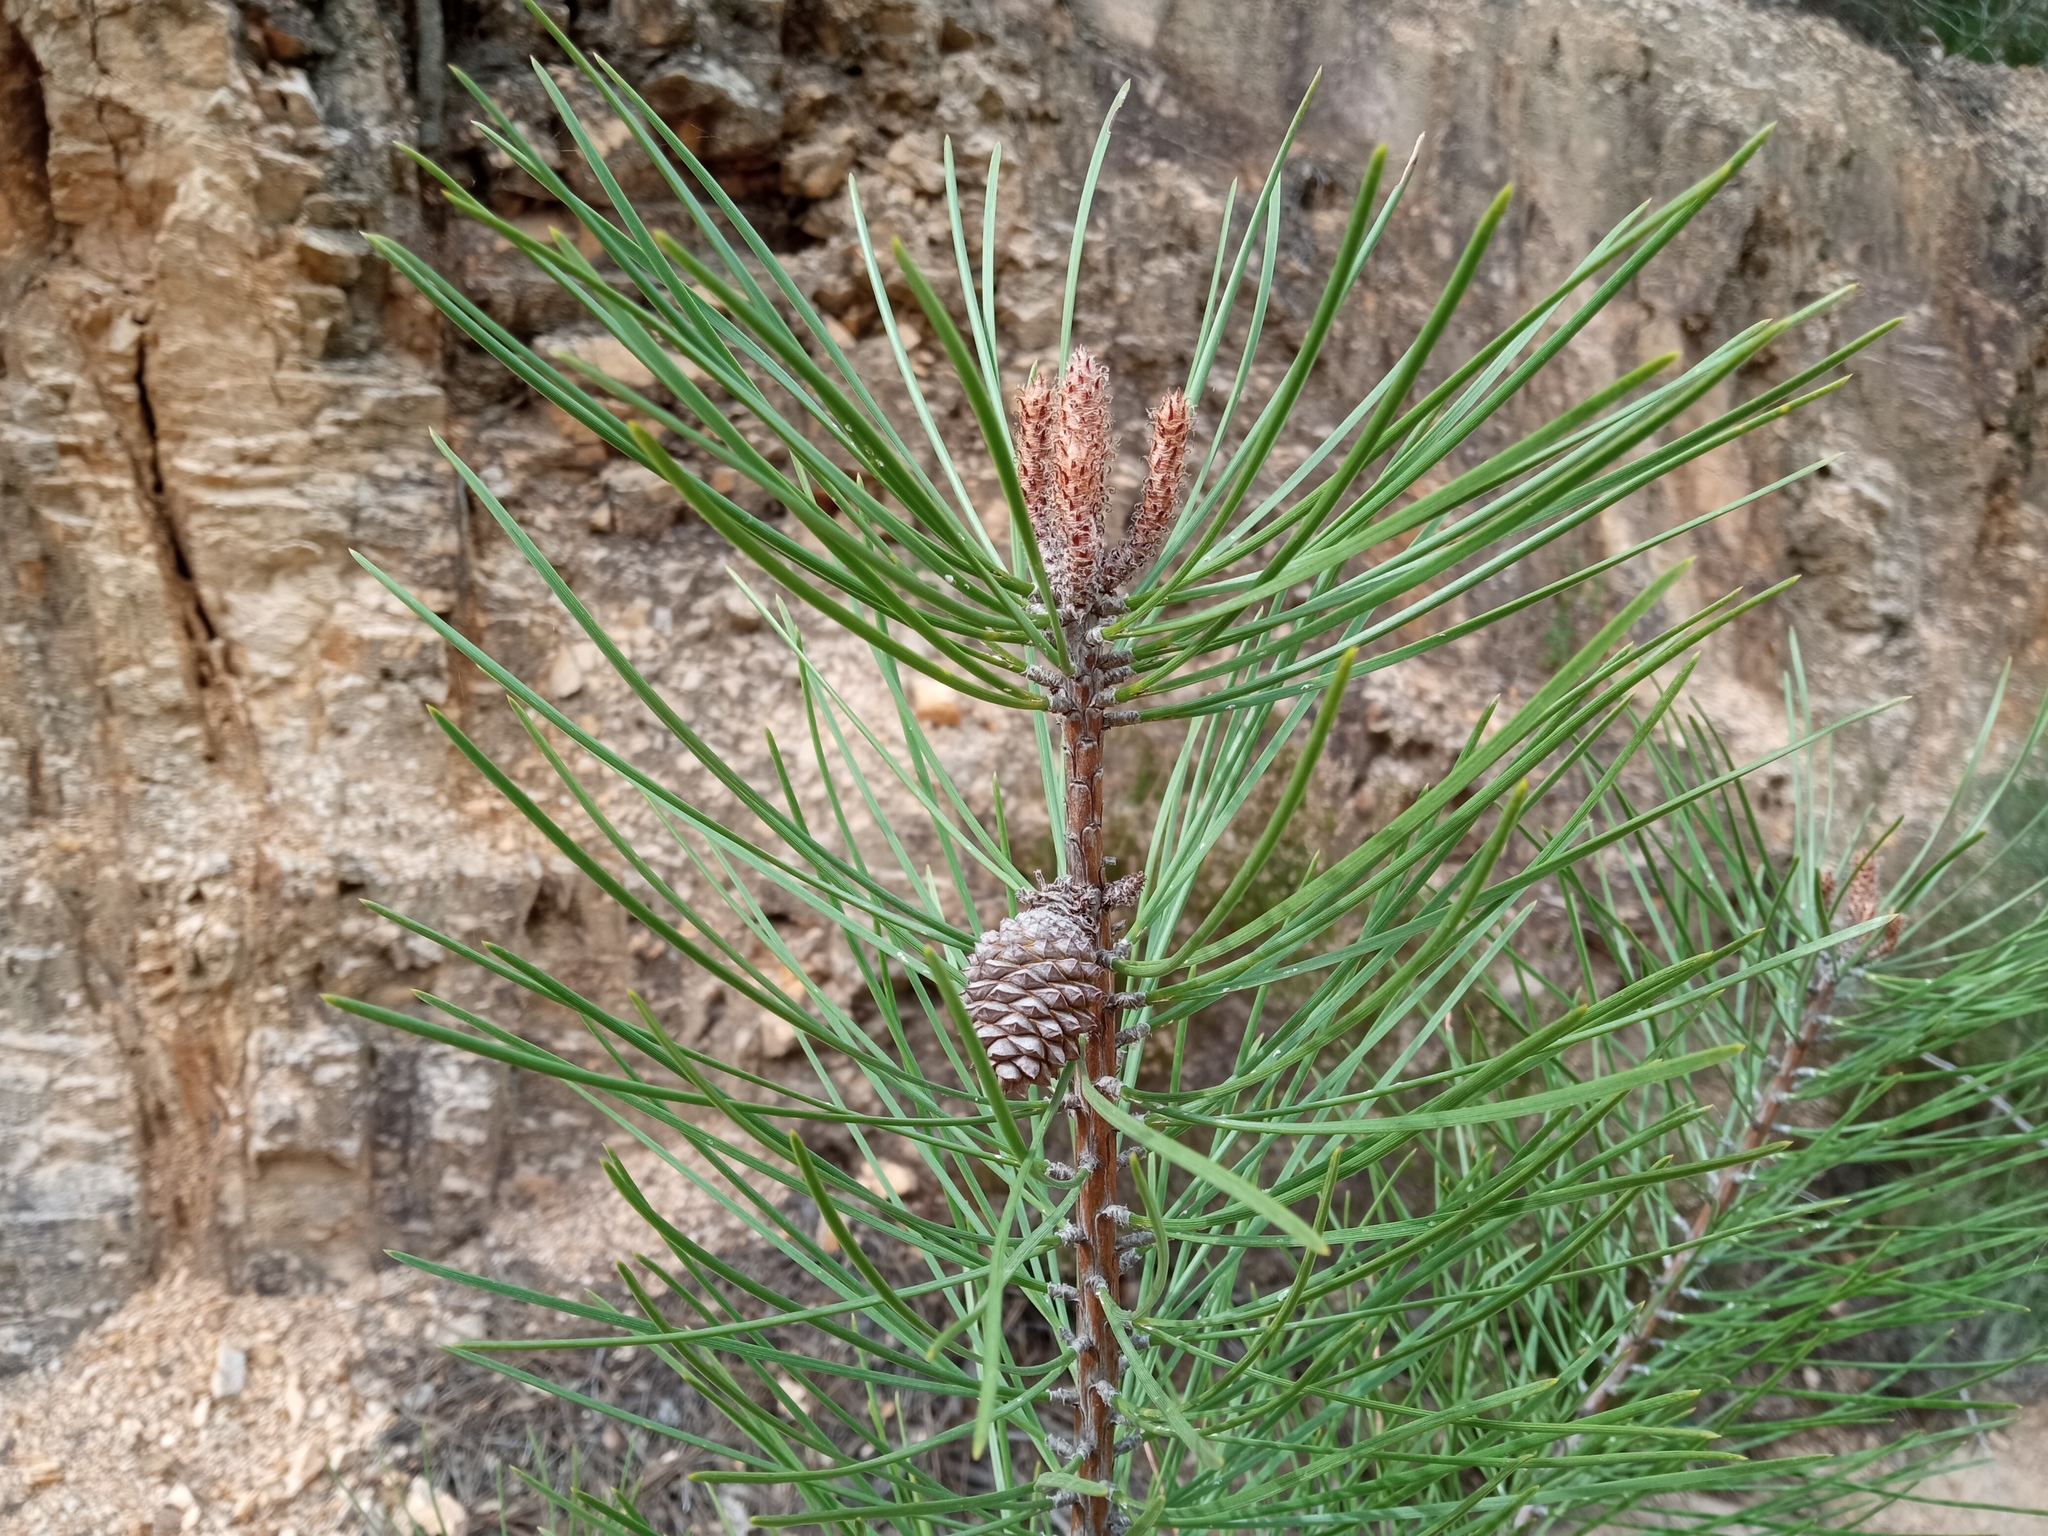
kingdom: Plantae
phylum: Tracheophyta
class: Pinopsida
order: Pinales
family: Pinaceae
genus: Pinus
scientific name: Pinus pinaster
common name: Maritime pine
